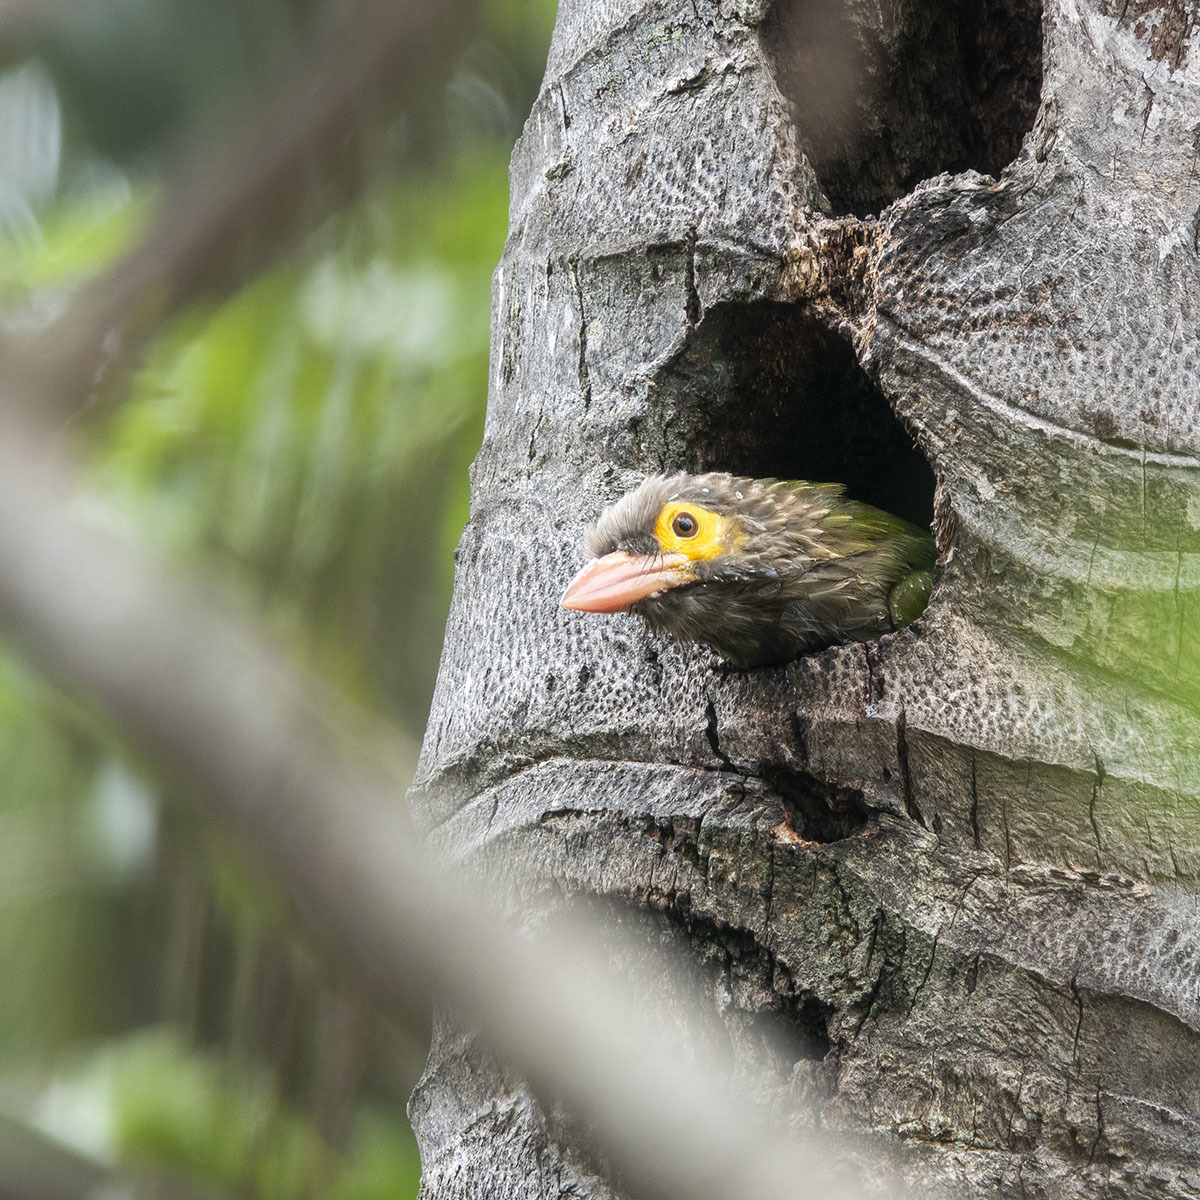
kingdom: Animalia
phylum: Chordata
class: Aves
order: Piciformes
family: Megalaimidae
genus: Psilopogon
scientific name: Psilopogon zeylanicus
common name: Brown-headed barbet
